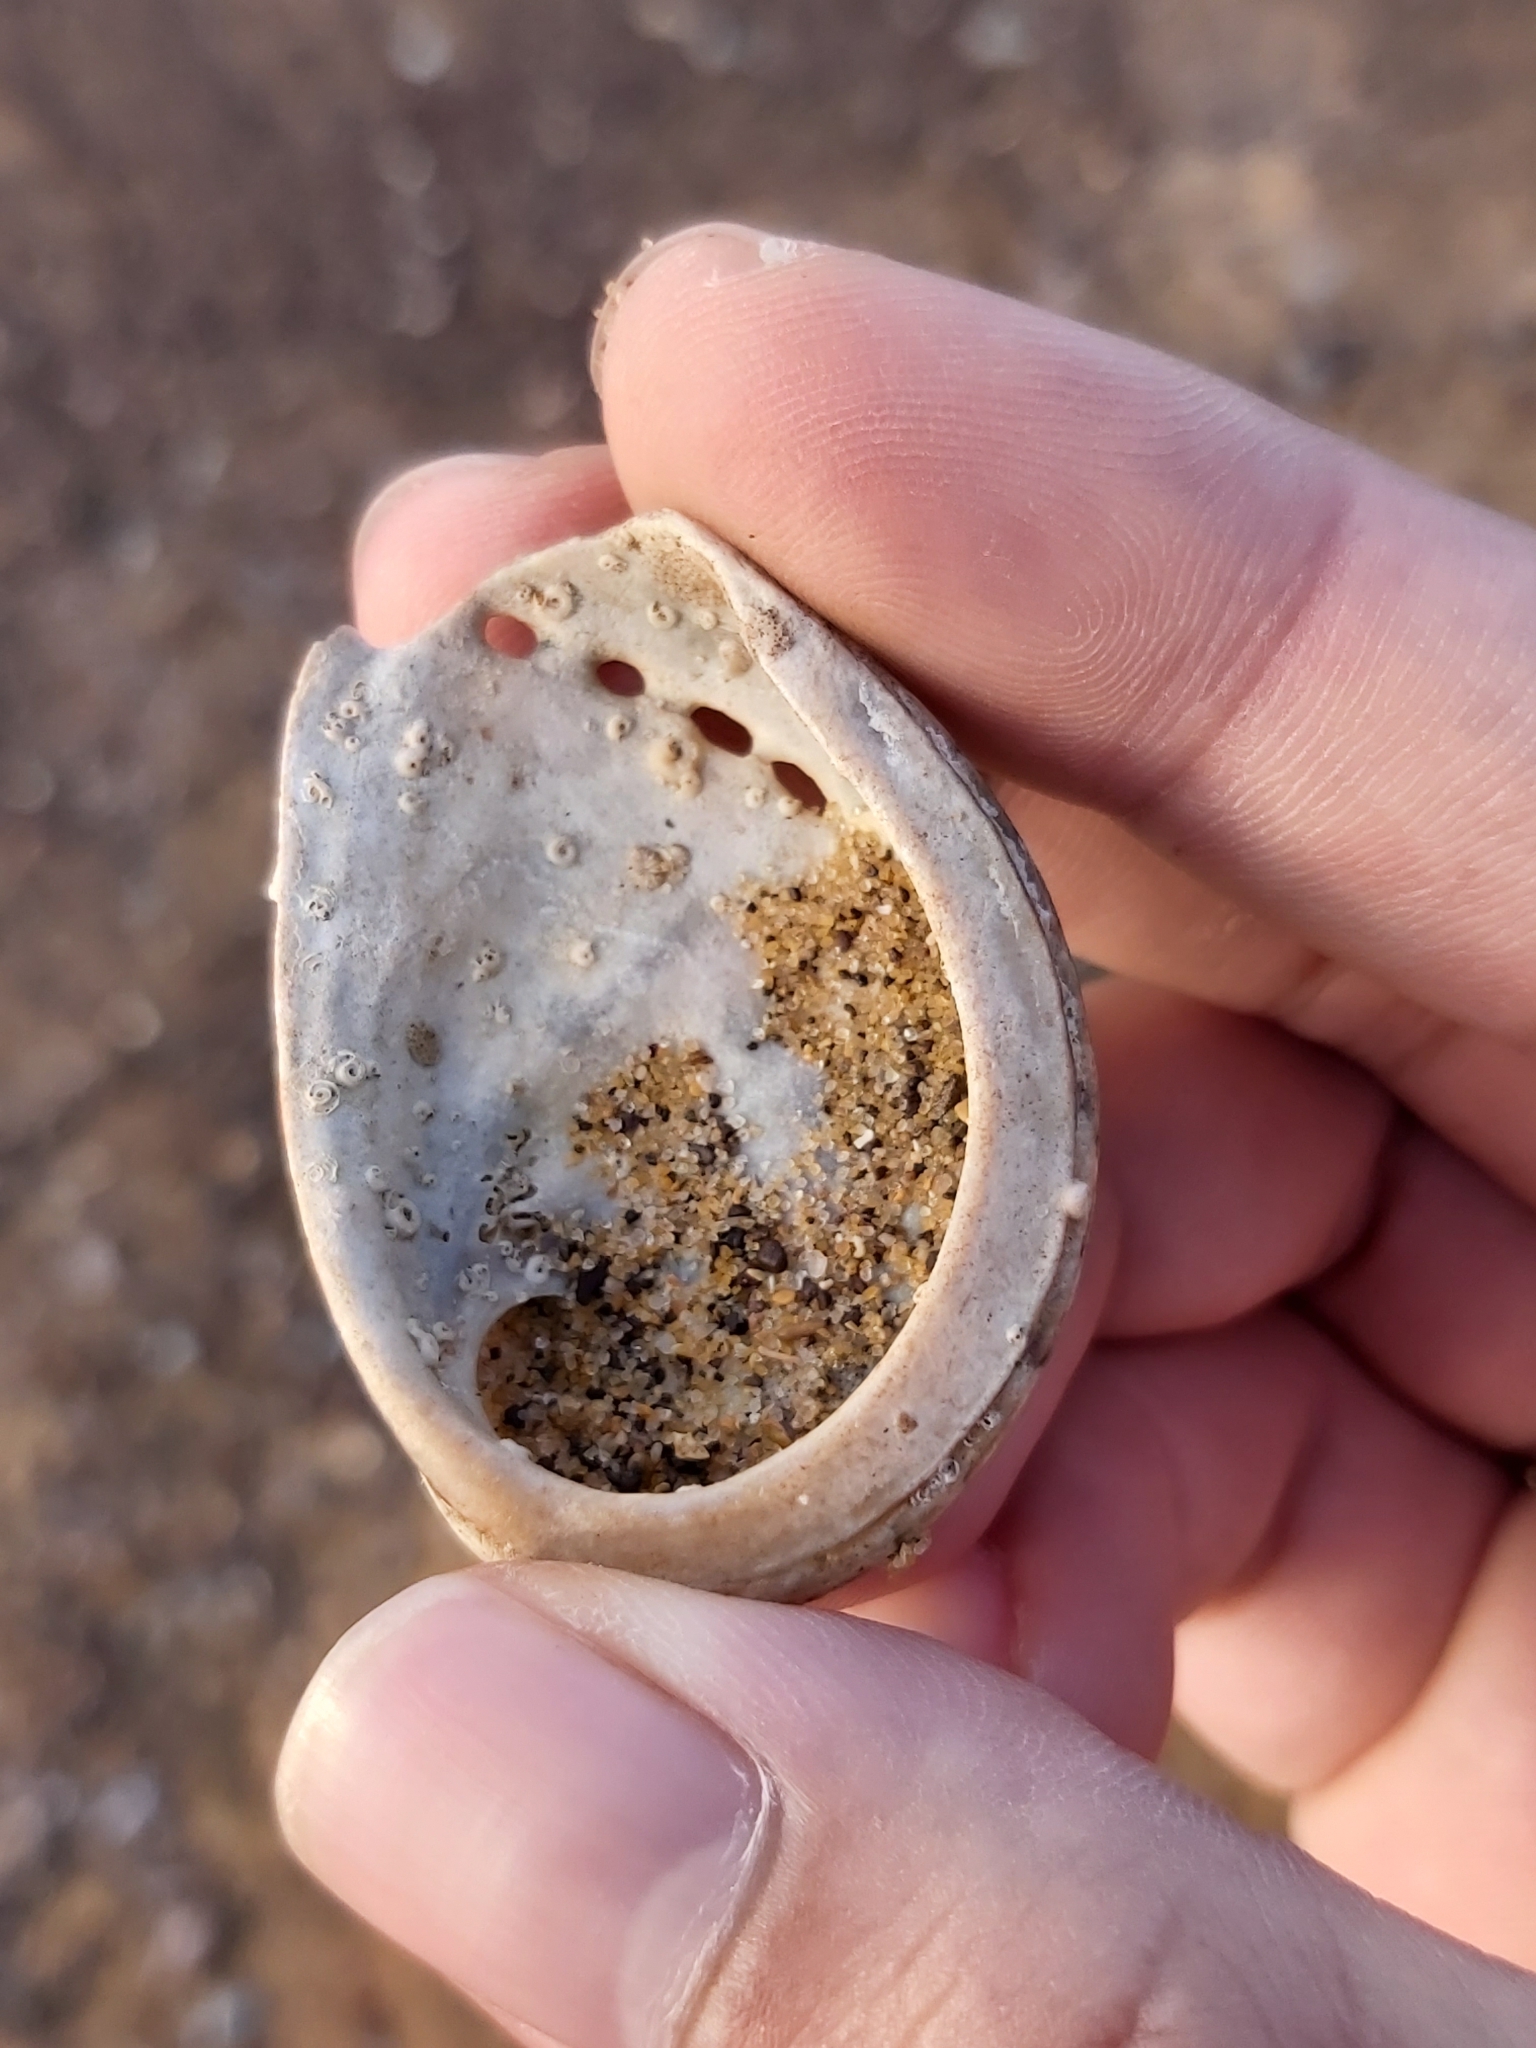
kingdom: Animalia
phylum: Mollusca
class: Gastropoda
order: Lepetellida
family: Haliotidae
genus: Haliotis
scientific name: Haliotis coccoradiata
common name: Reddish-rayed abalone
